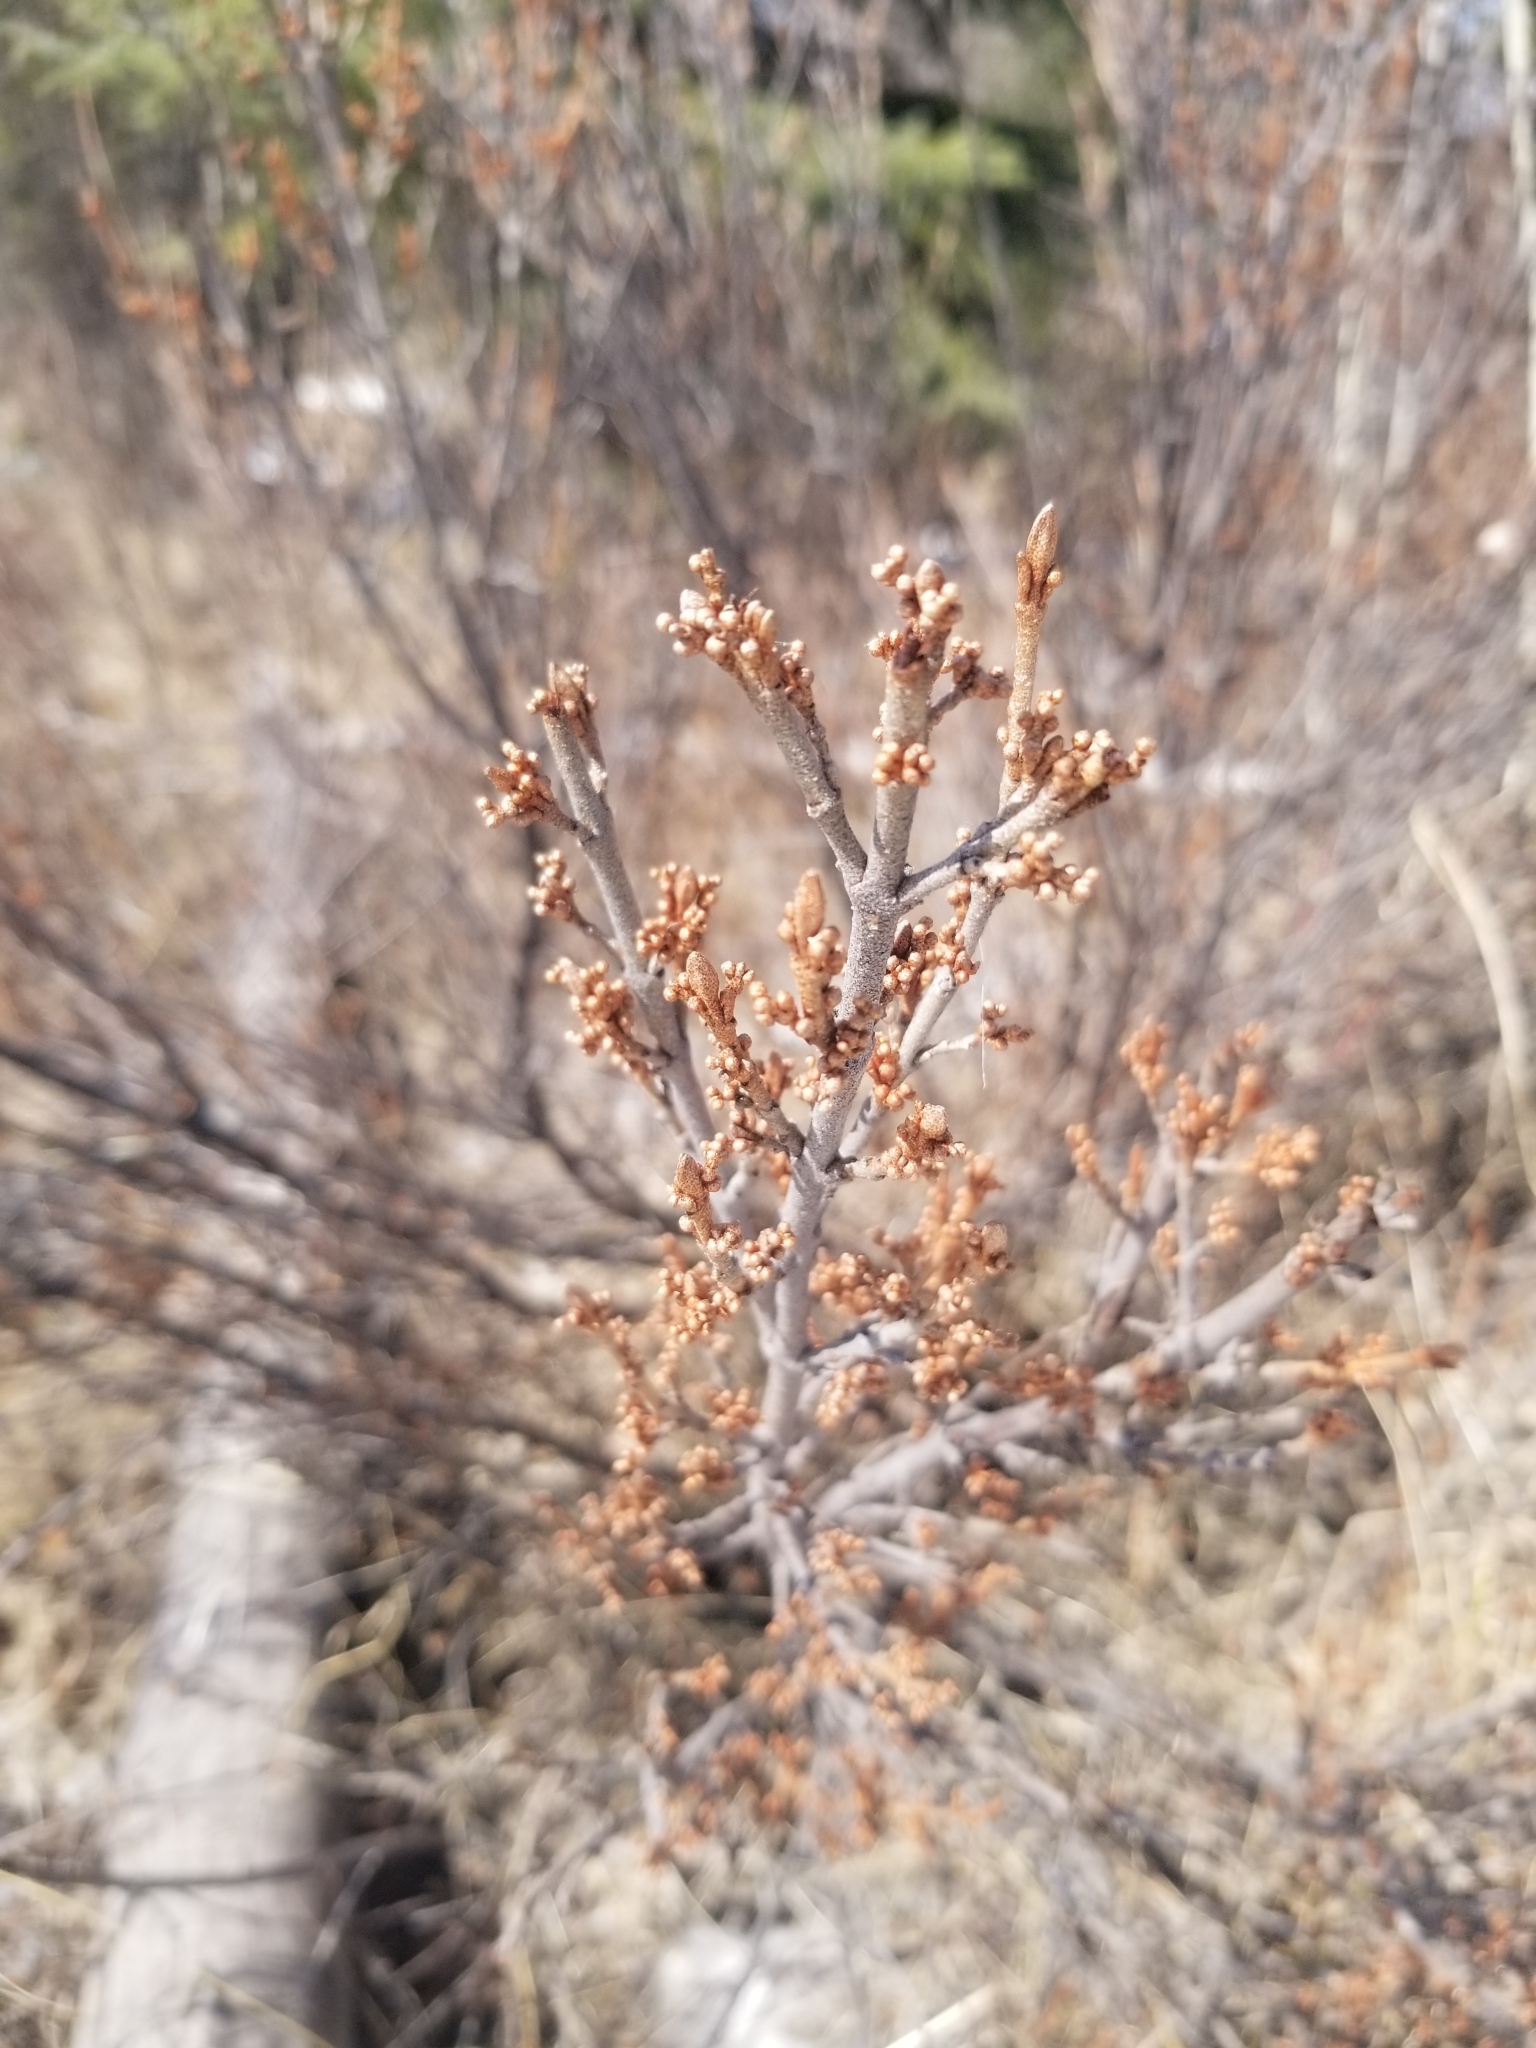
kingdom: Plantae
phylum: Tracheophyta
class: Magnoliopsida
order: Rosales
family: Elaeagnaceae
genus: Shepherdia
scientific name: Shepherdia canadensis
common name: Soapberry
